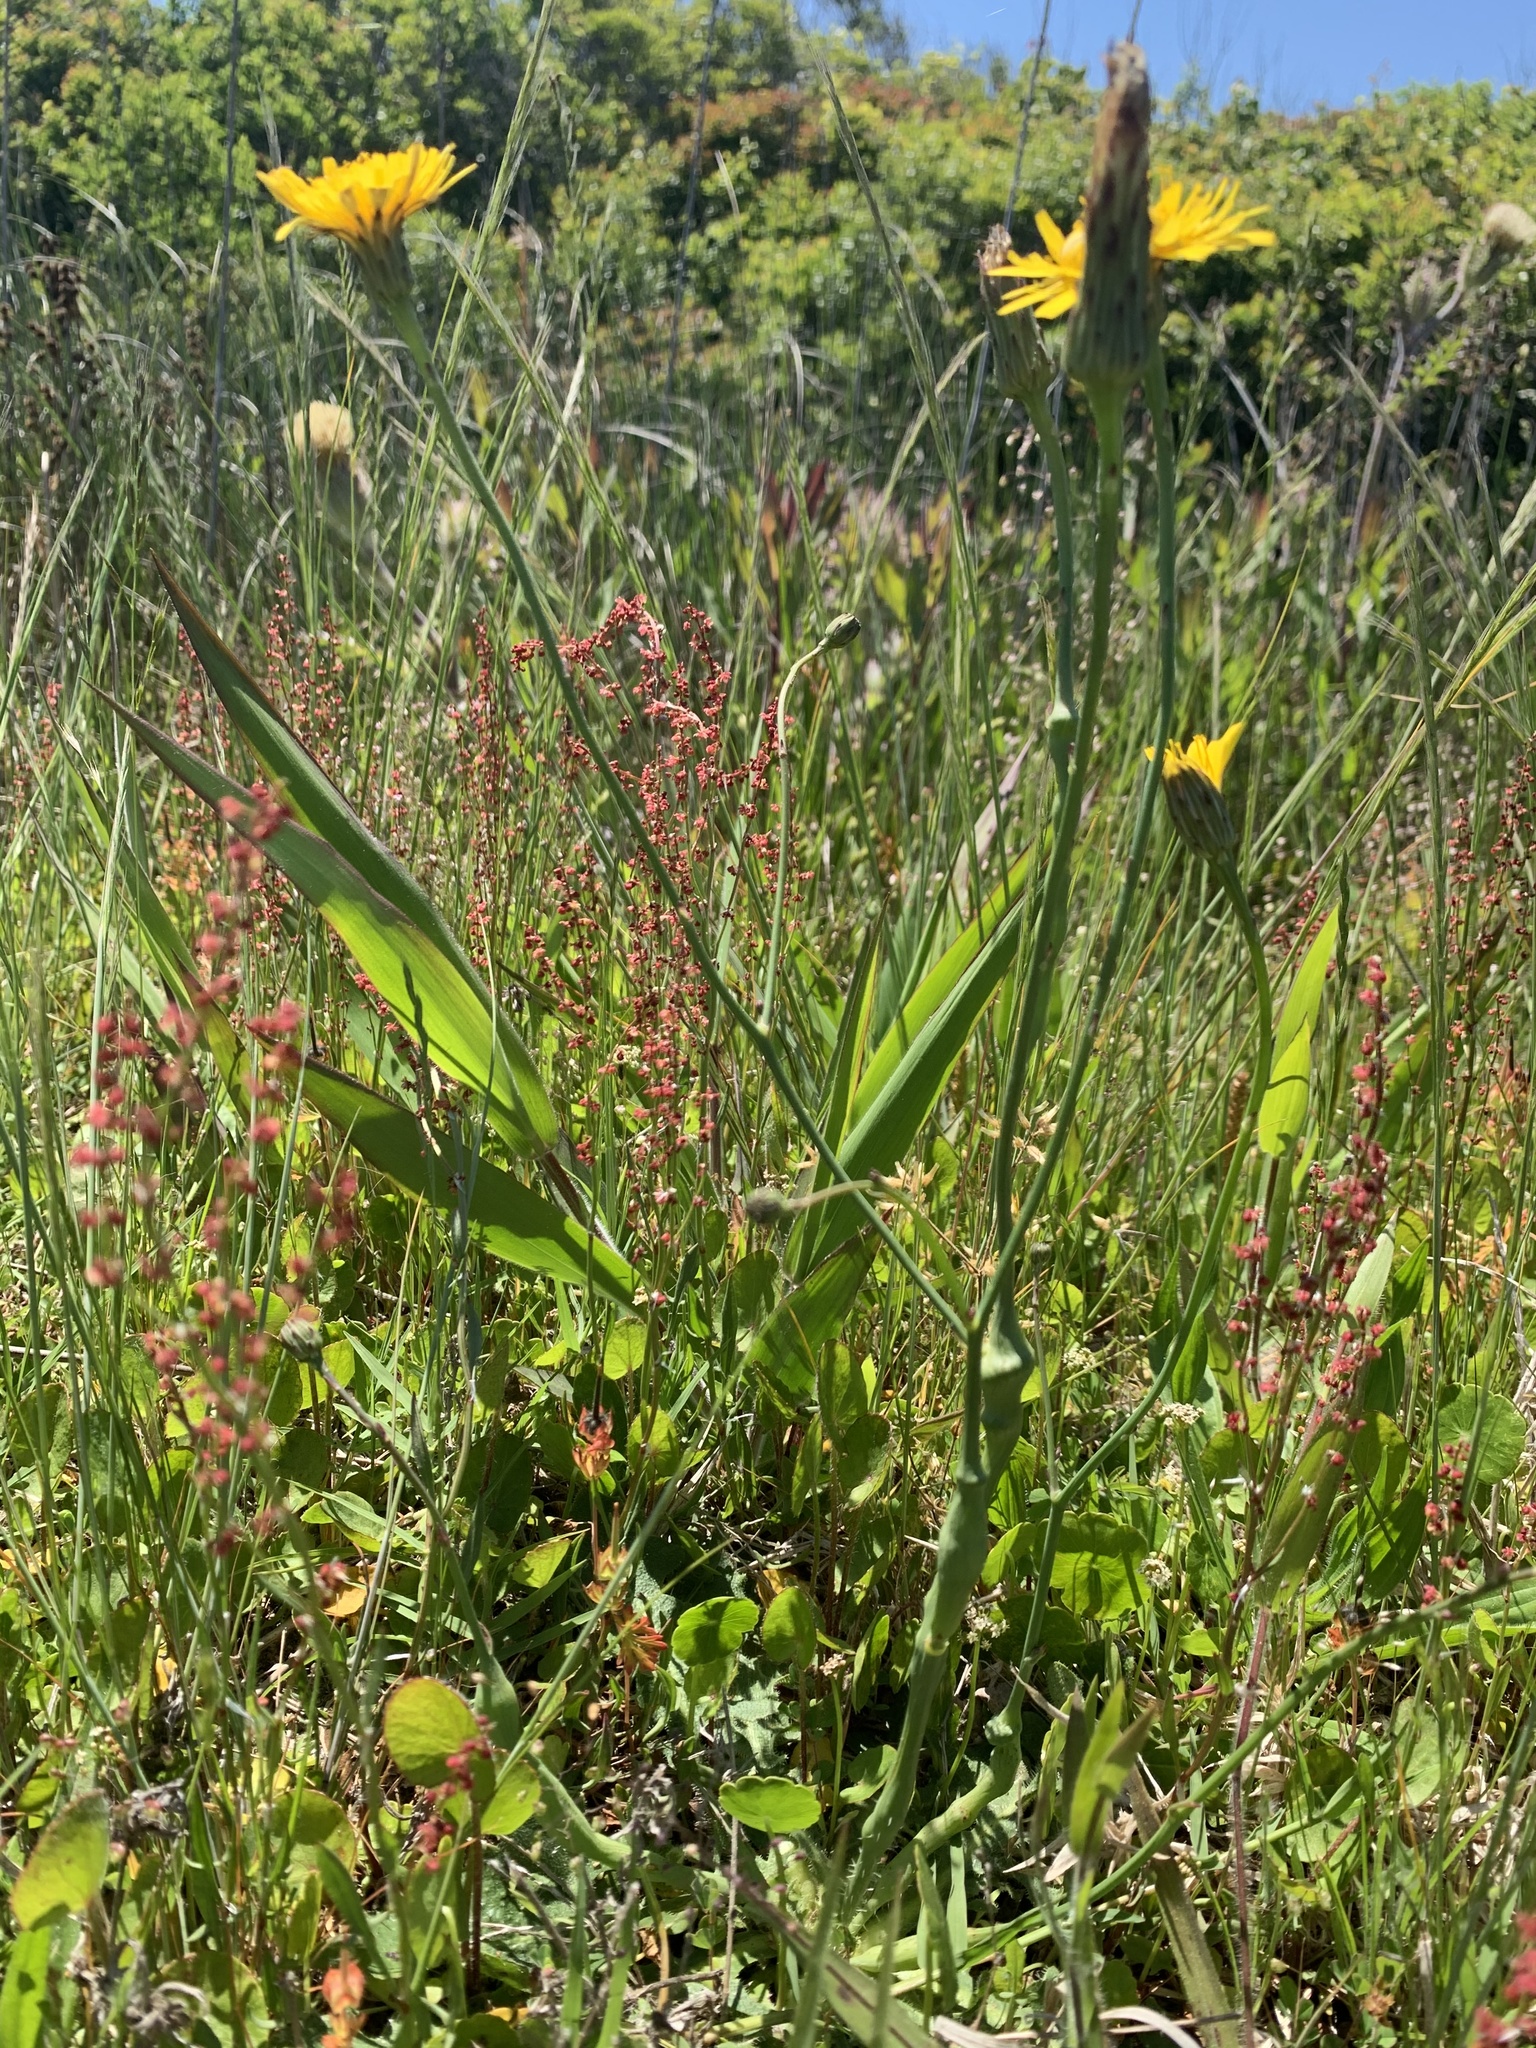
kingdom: Plantae
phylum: Tracheophyta
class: Magnoliopsida
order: Asterales
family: Asteraceae
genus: Hypochaeris
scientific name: Hypochaeris radicata
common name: Flatweed
